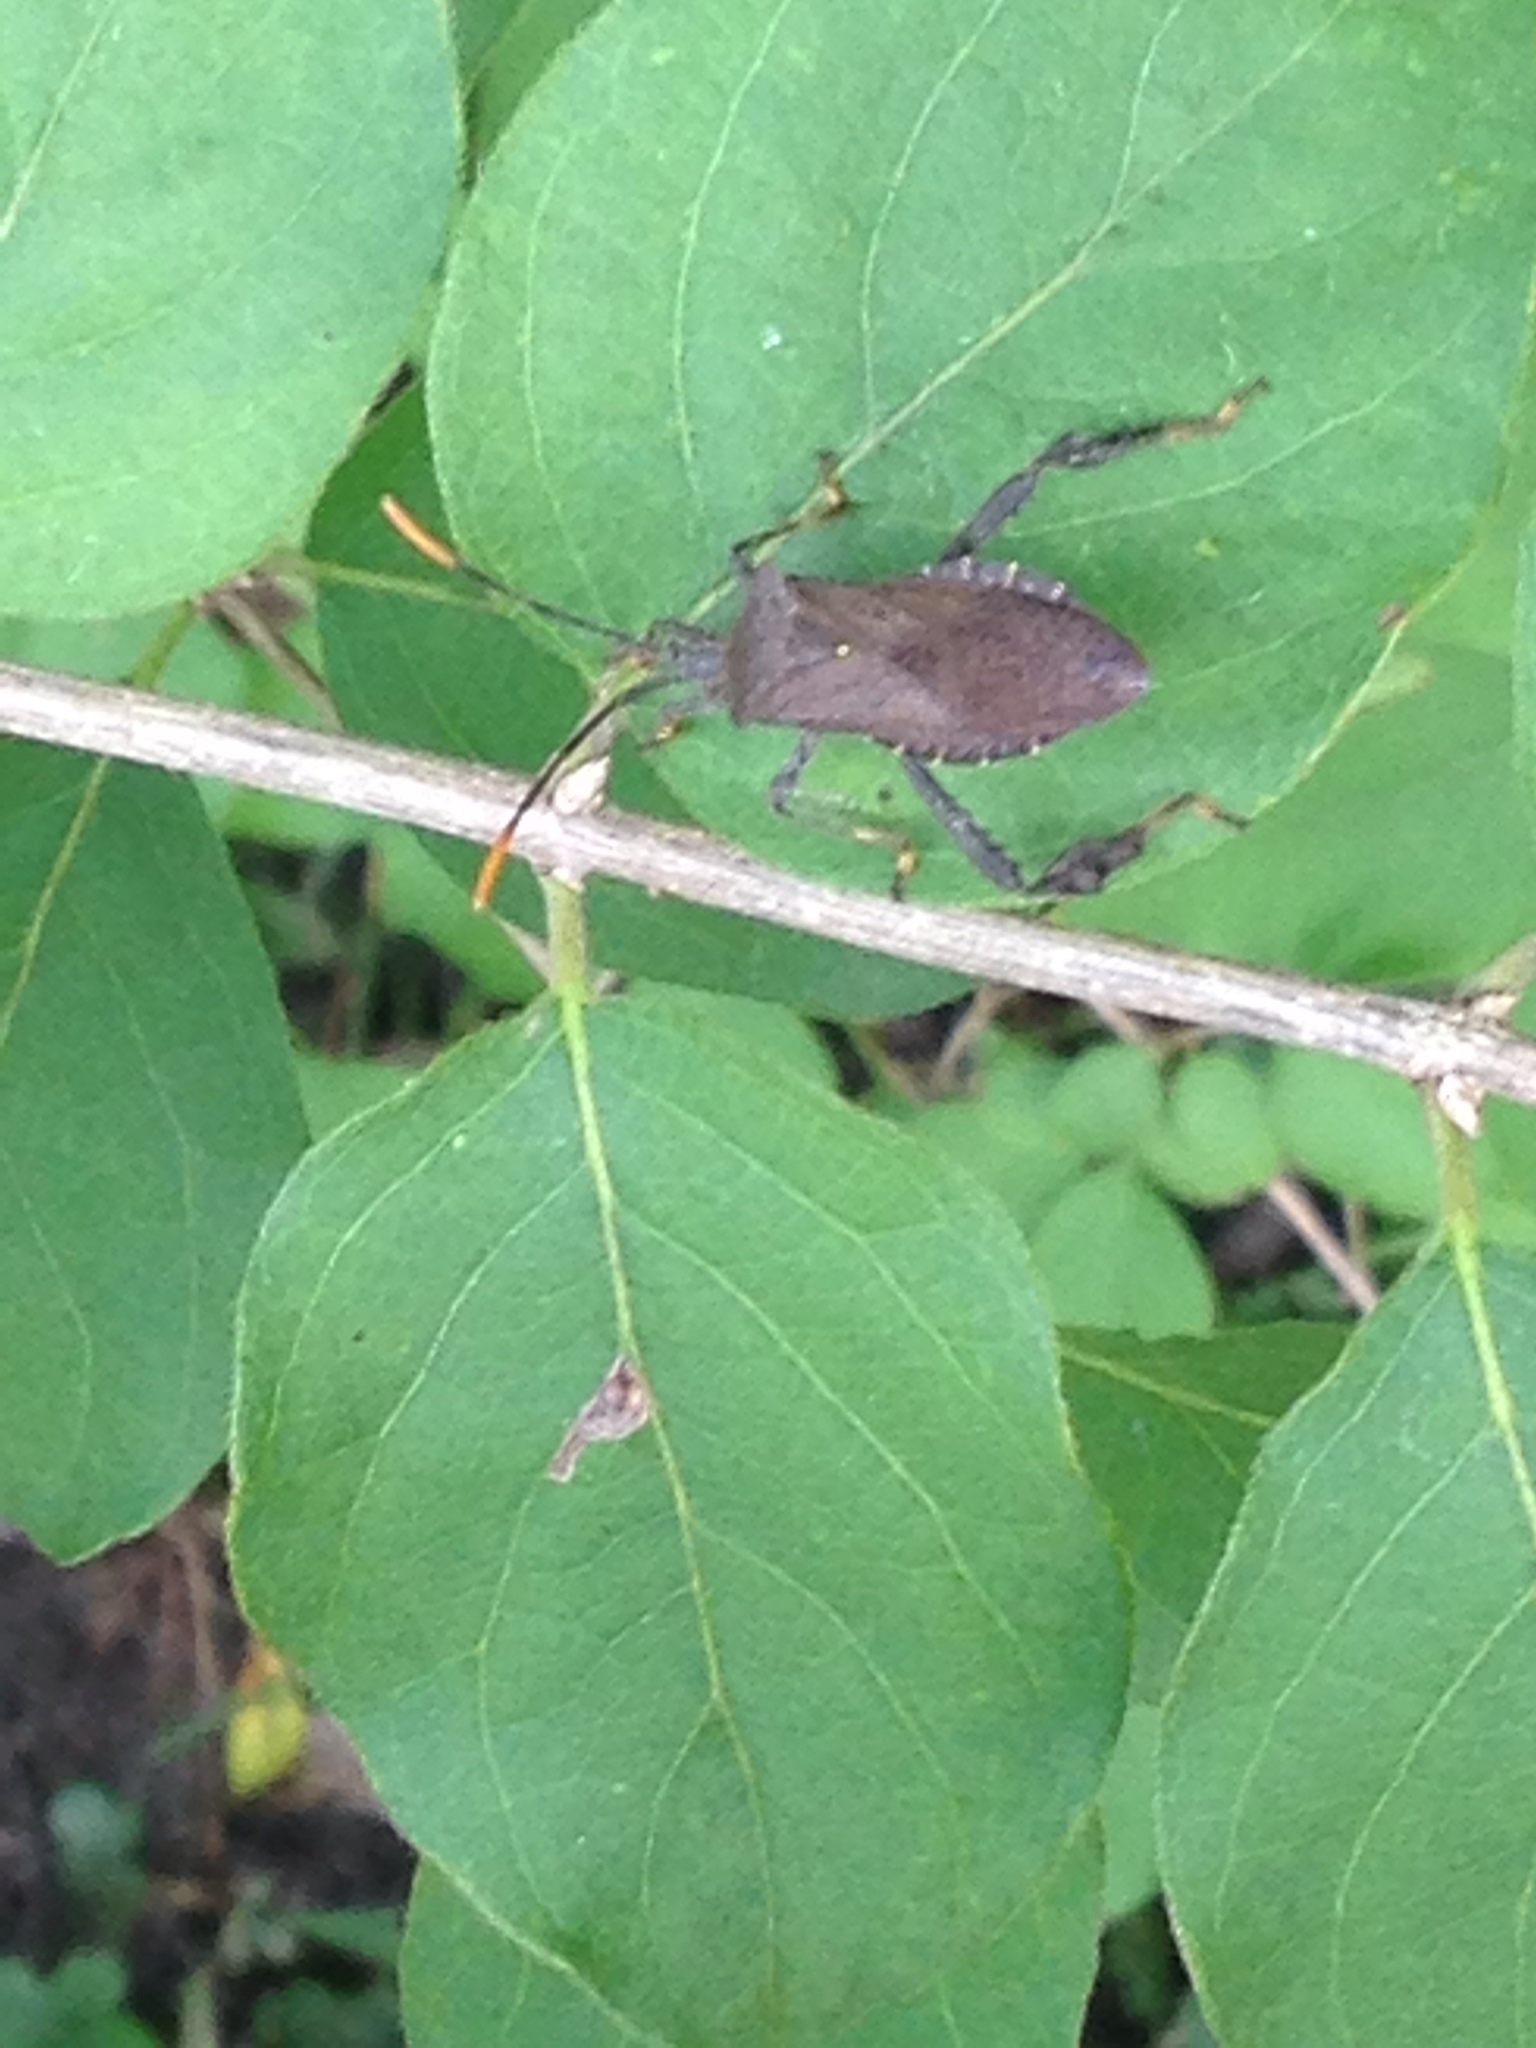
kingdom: Animalia
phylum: Arthropoda
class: Insecta
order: Hemiptera
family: Coreidae
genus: Acanthocephala
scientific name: Acanthocephala terminalis
